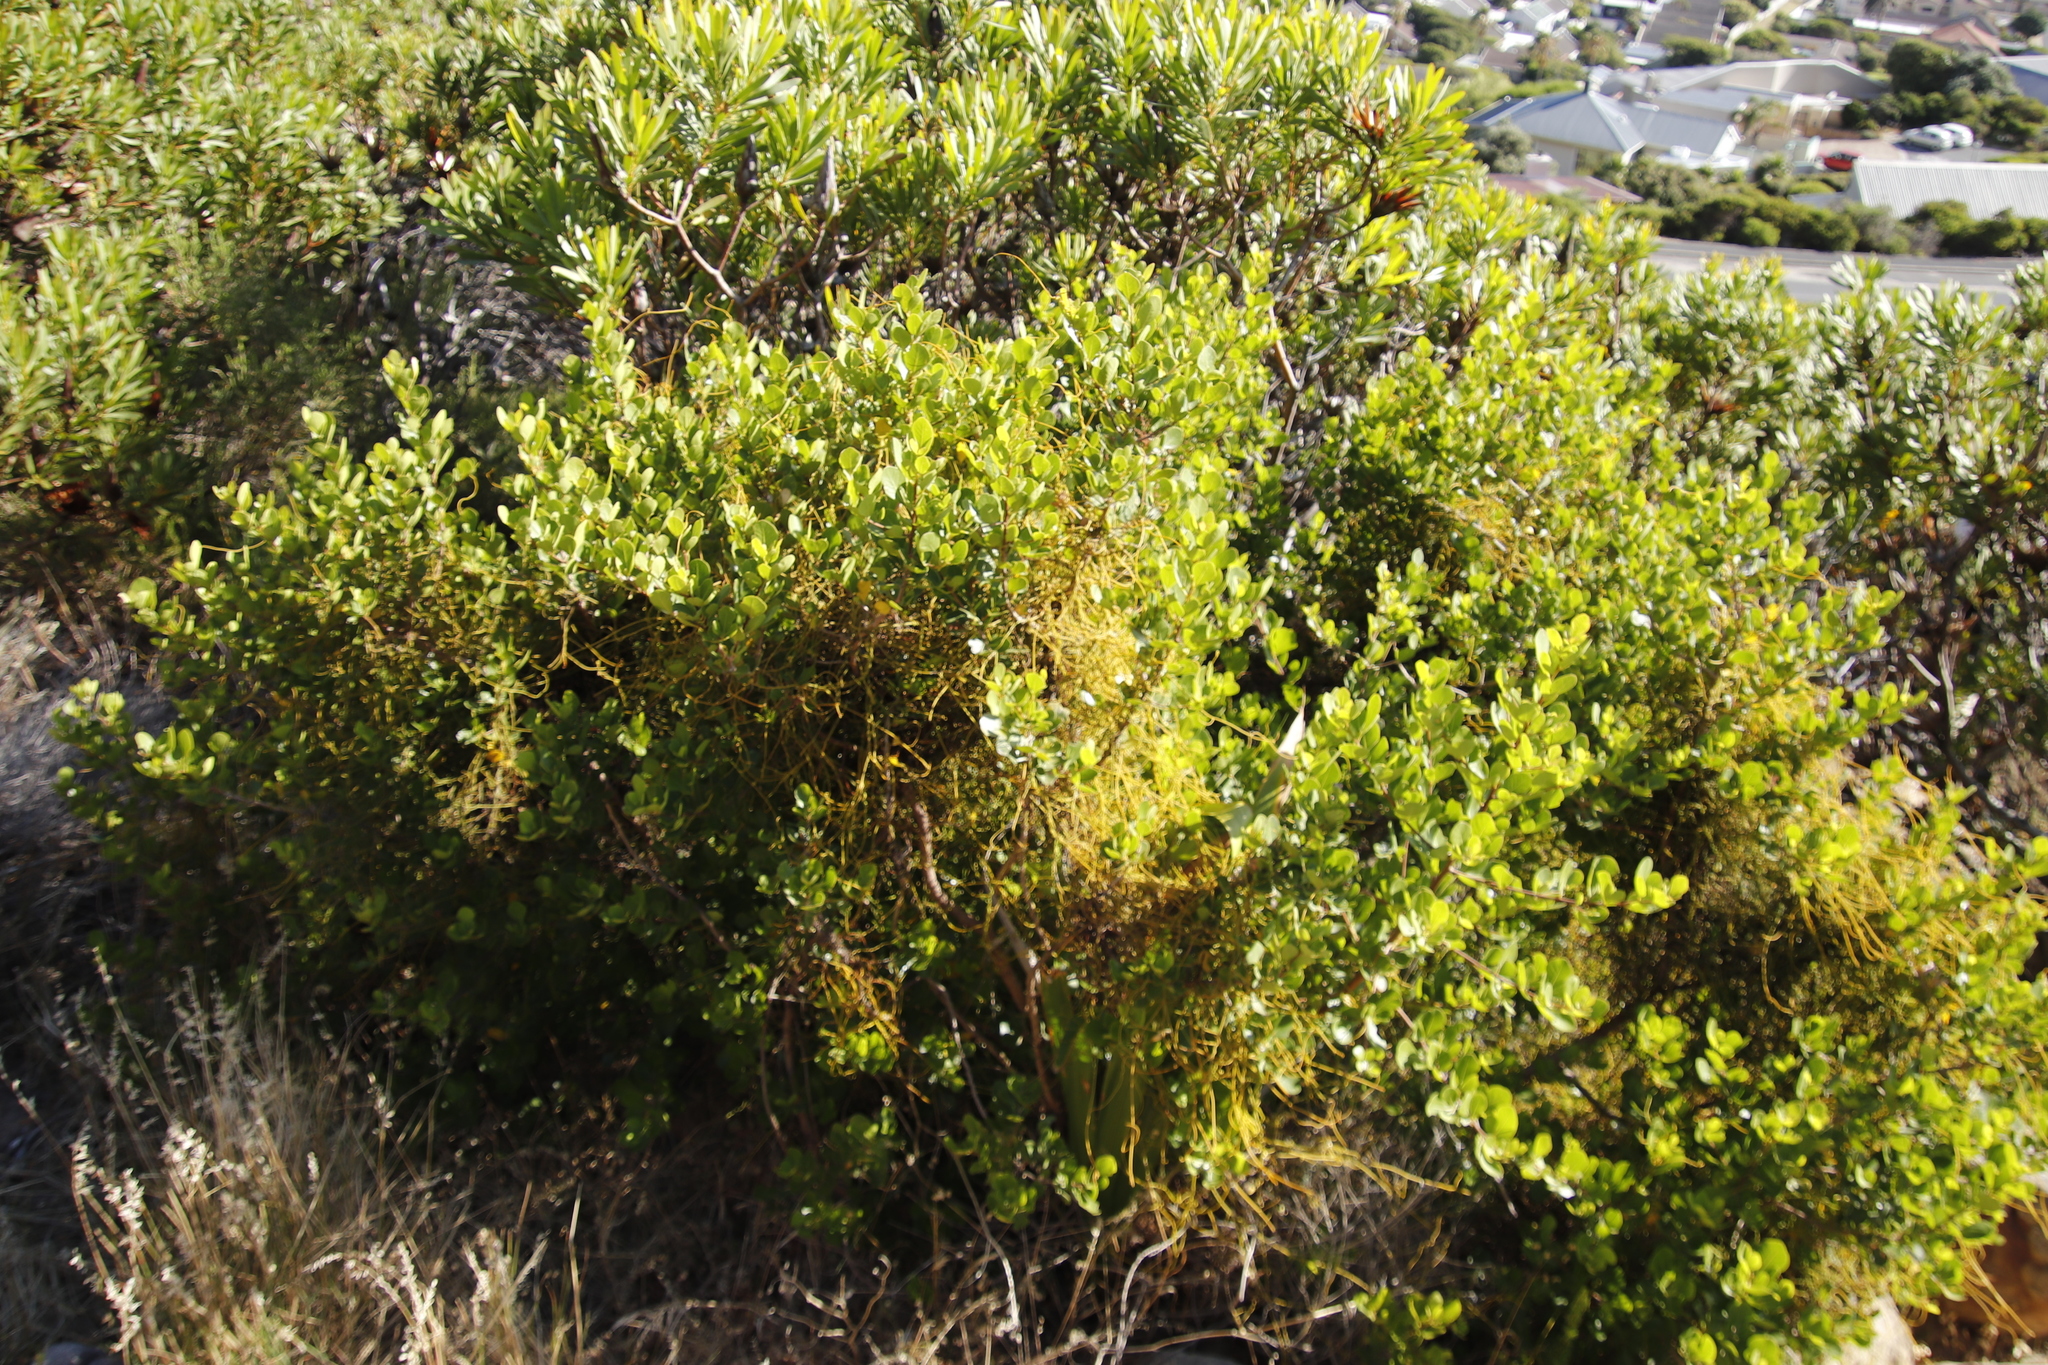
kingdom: Plantae
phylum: Tracheophyta
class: Magnoliopsida
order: Sapindales
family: Anacardiaceae
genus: Searsia
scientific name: Searsia lucida
